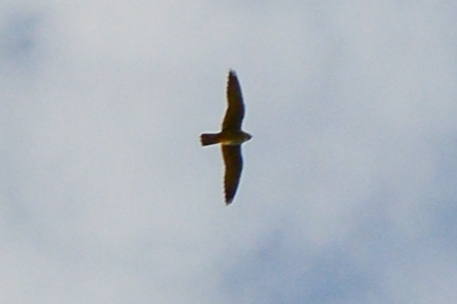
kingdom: Animalia
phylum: Chordata
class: Aves
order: Falconiformes
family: Falconidae
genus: Falco
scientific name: Falco subbuteo
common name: Eurasian hobby
